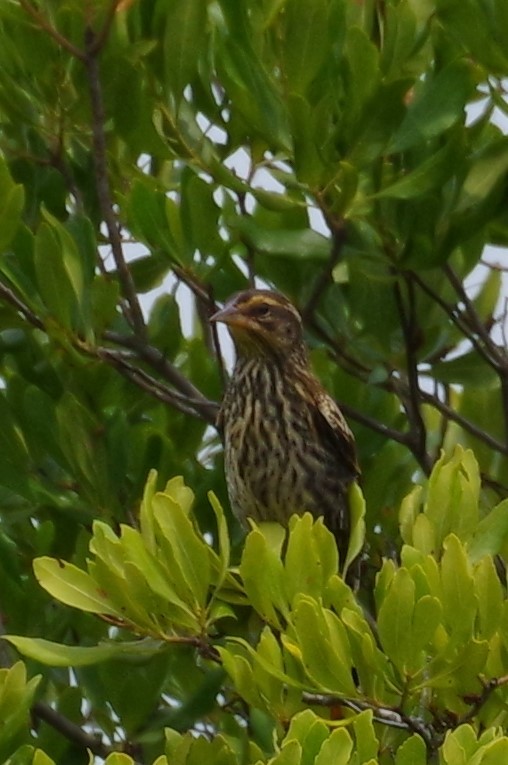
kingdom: Animalia
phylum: Chordata
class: Aves
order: Passeriformes
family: Icteridae
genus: Agelaius
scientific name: Agelaius phoeniceus
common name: Red-winged blackbird
